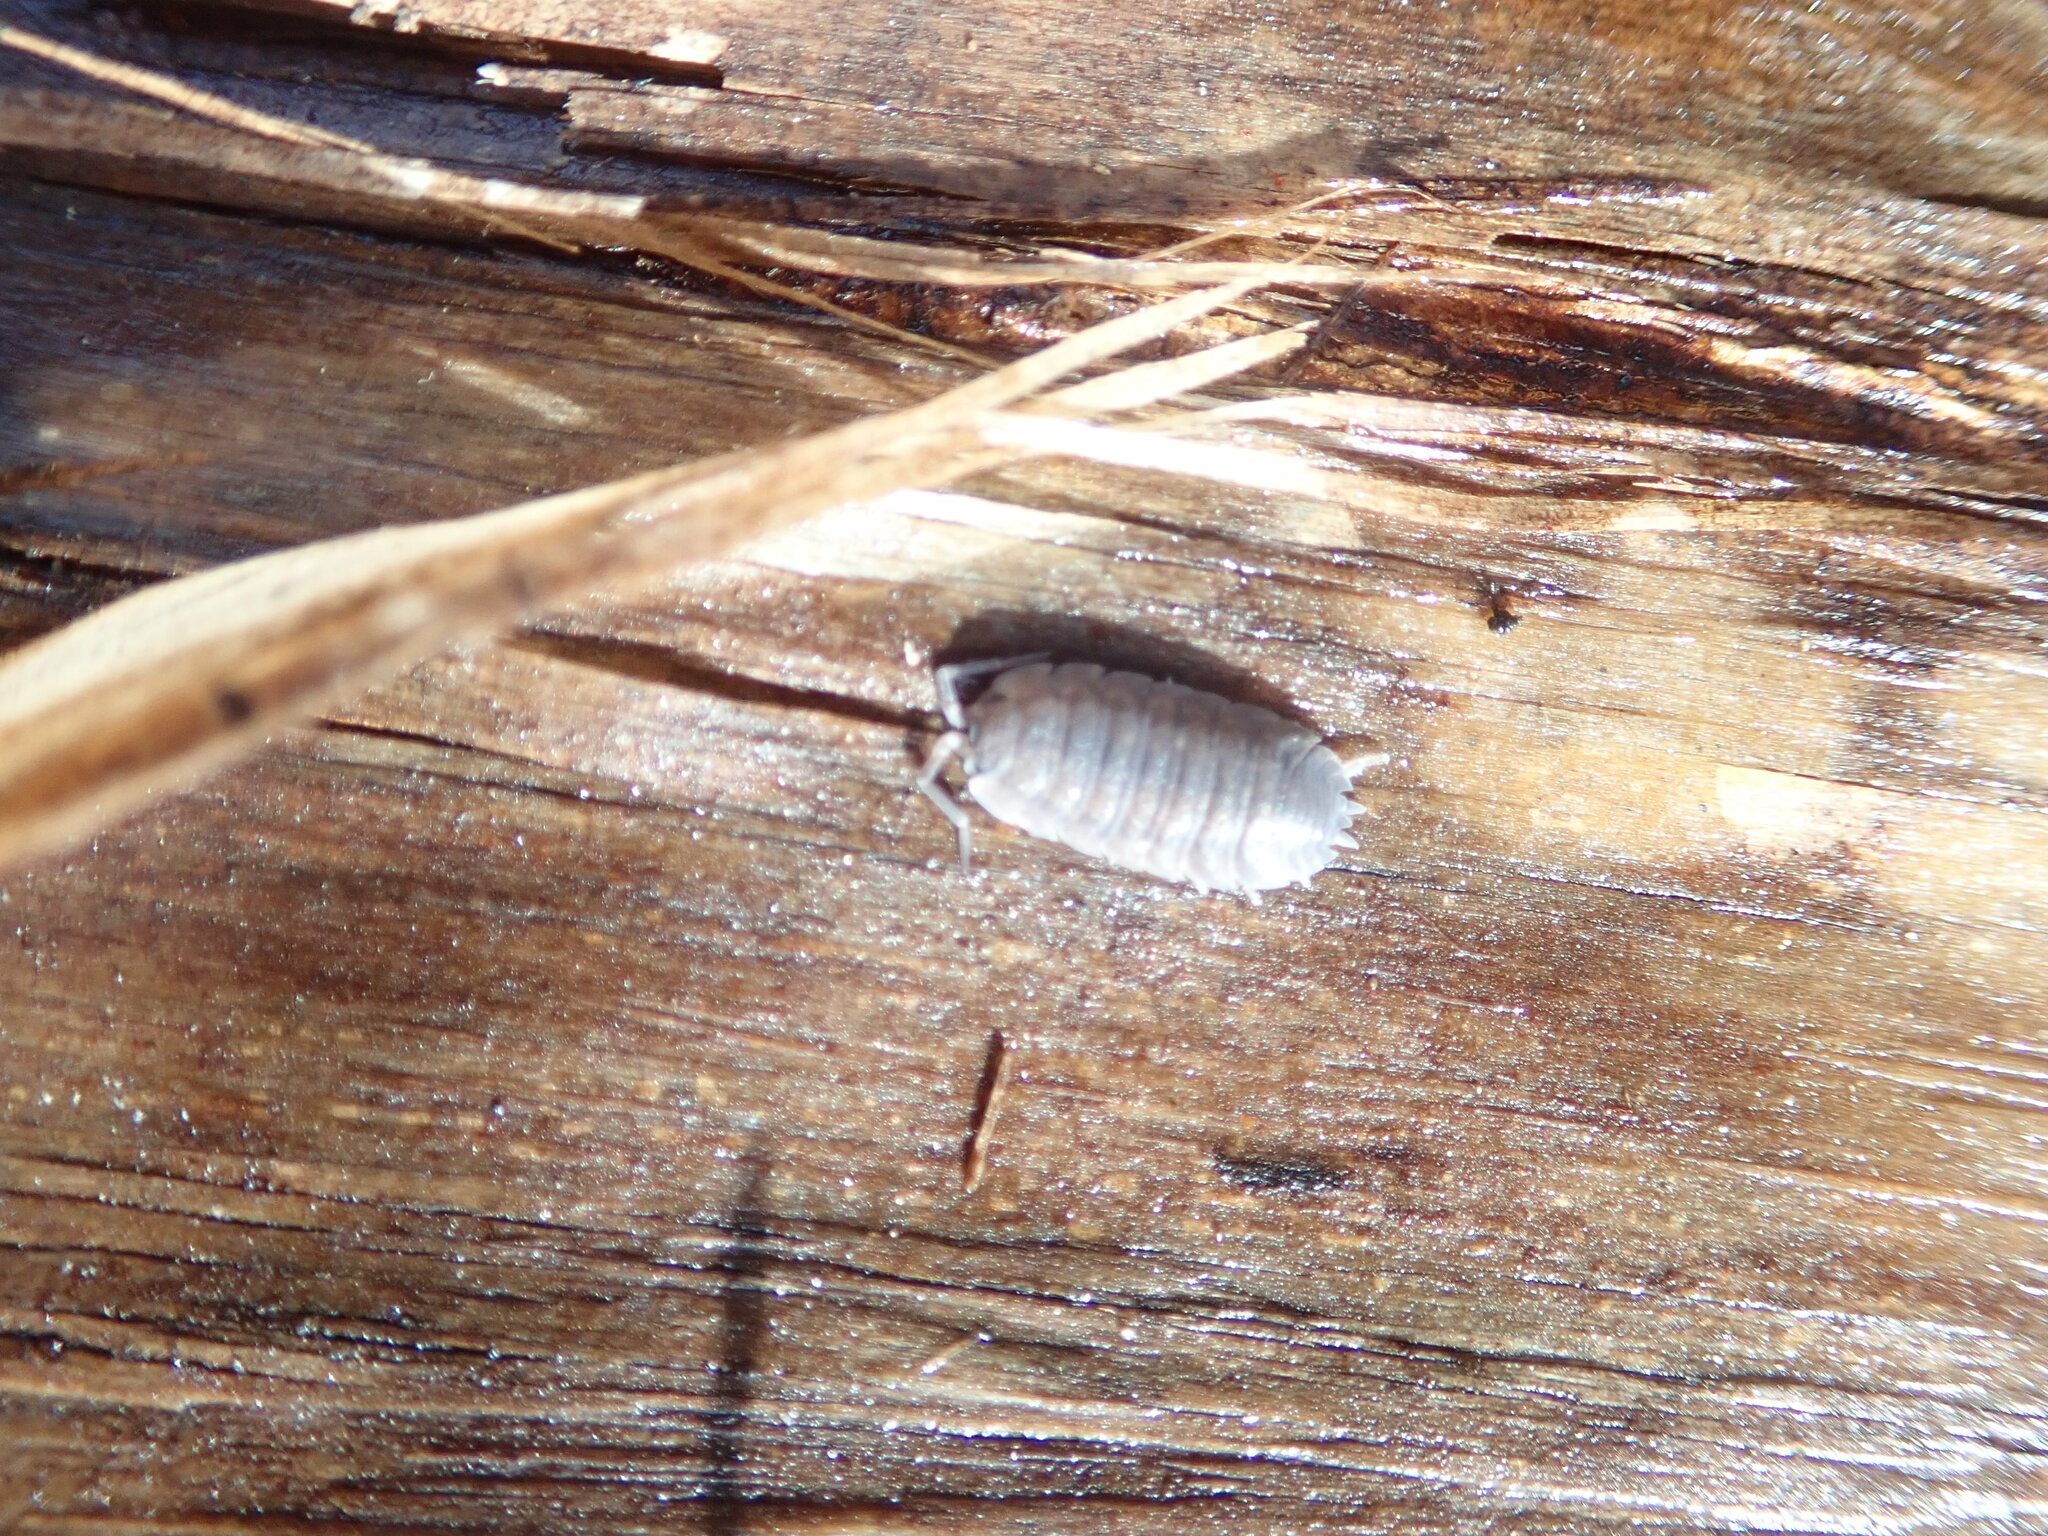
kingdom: Animalia
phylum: Arthropoda
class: Malacostraca
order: Isopoda
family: Porcellionidae
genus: Porcellio
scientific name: Porcellio scaber
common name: Common rough woodlouse
